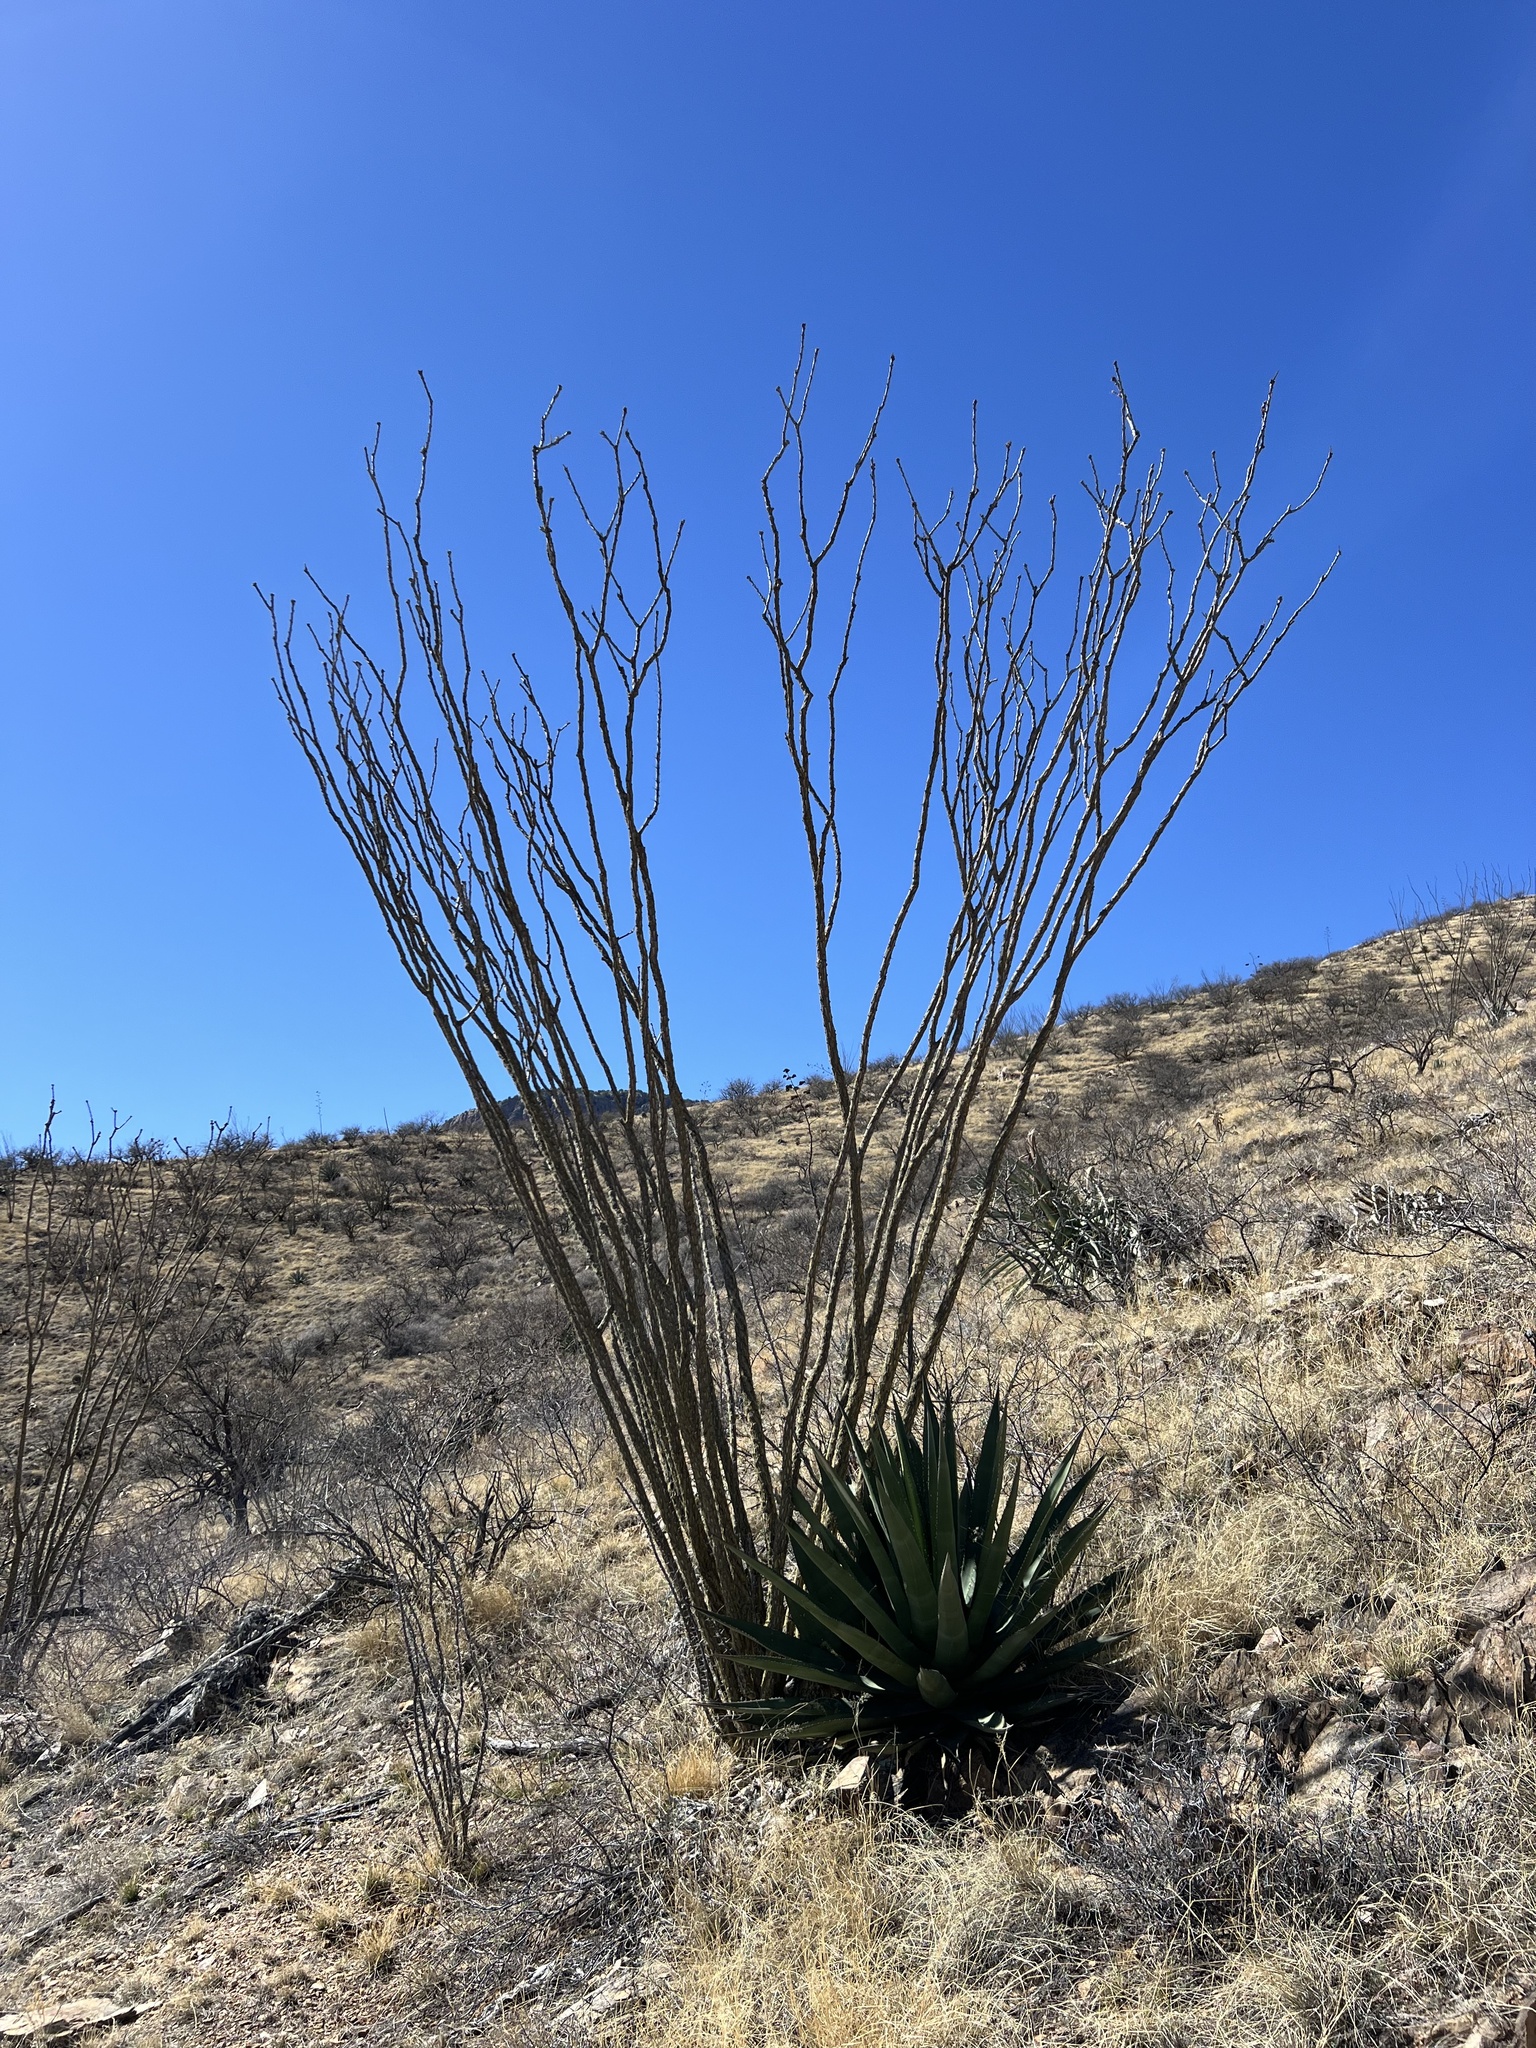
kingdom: Plantae
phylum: Tracheophyta
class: Magnoliopsida
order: Ericales
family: Fouquieriaceae
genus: Fouquieria
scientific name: Fouquieria splendens
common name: Vine-cactus
